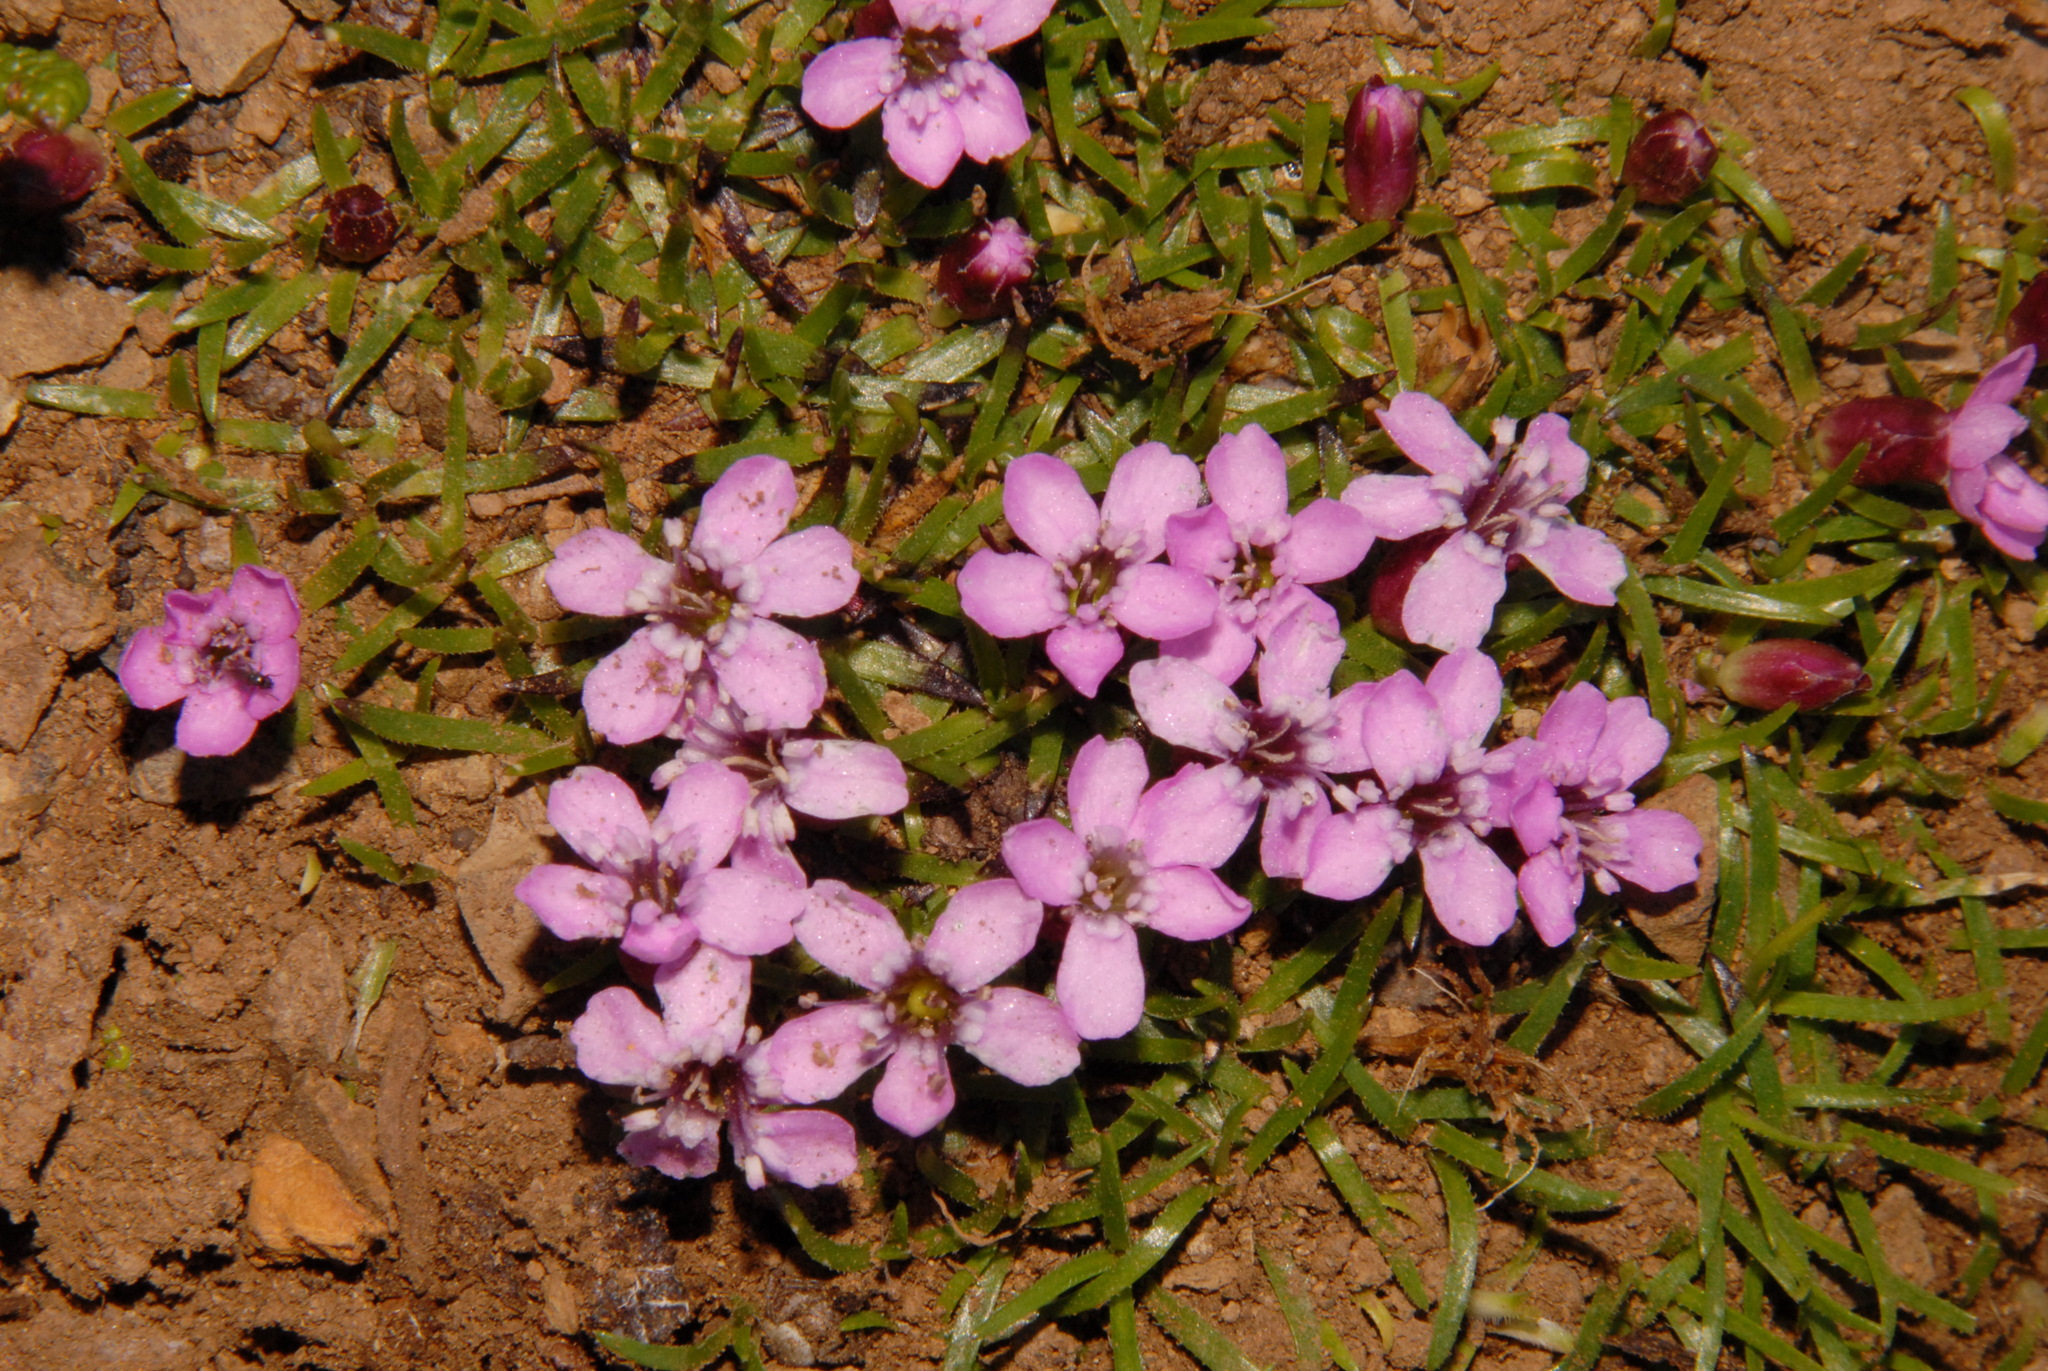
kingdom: Plantae
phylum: Tracheophyta
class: Magnoliopsida
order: Caryophyllales
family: Caryophyllaceae
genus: Silene
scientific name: Silene acaulis
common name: Moss campion
